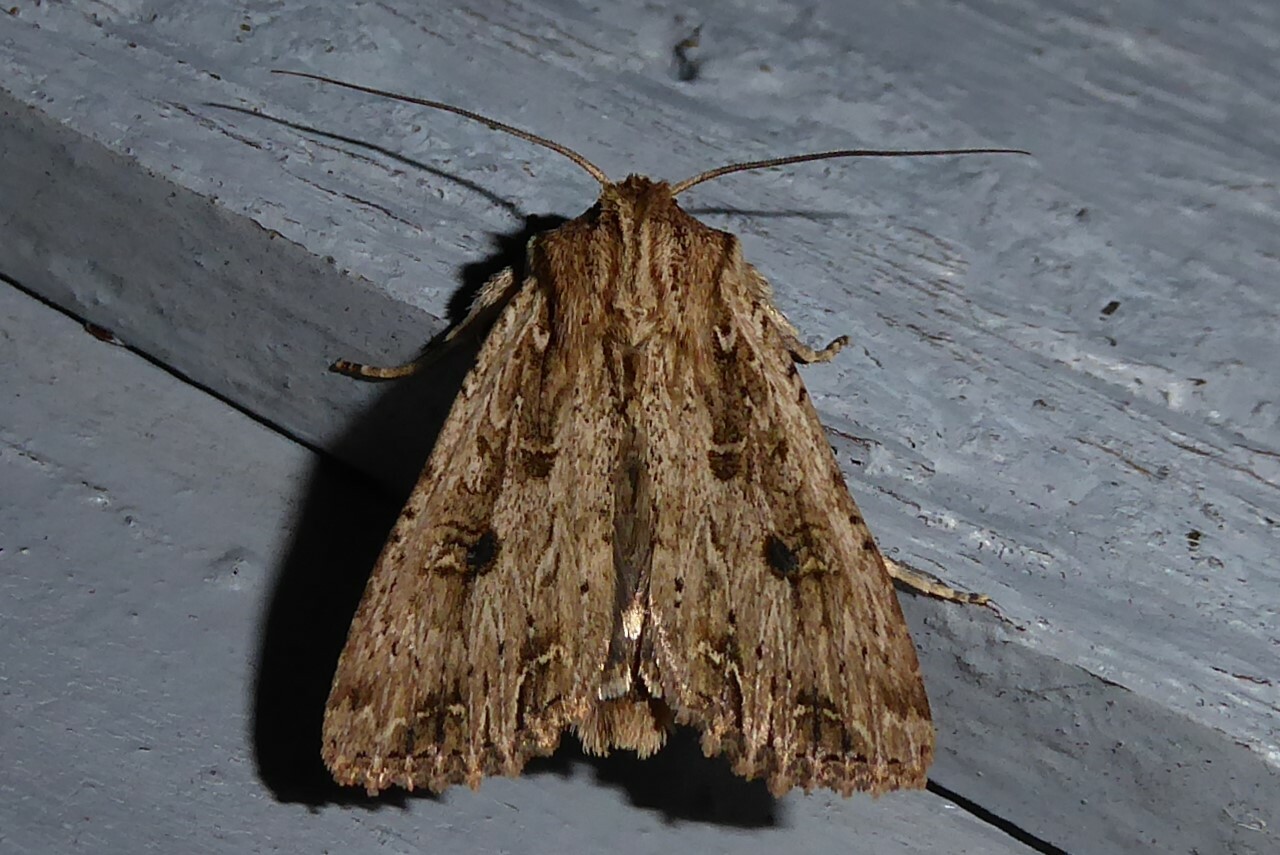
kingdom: Animalia
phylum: Arthropoda
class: Insecta
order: Lepidoptera
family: Noctuidae
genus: Ichneutica
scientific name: Ichneutica lignana
